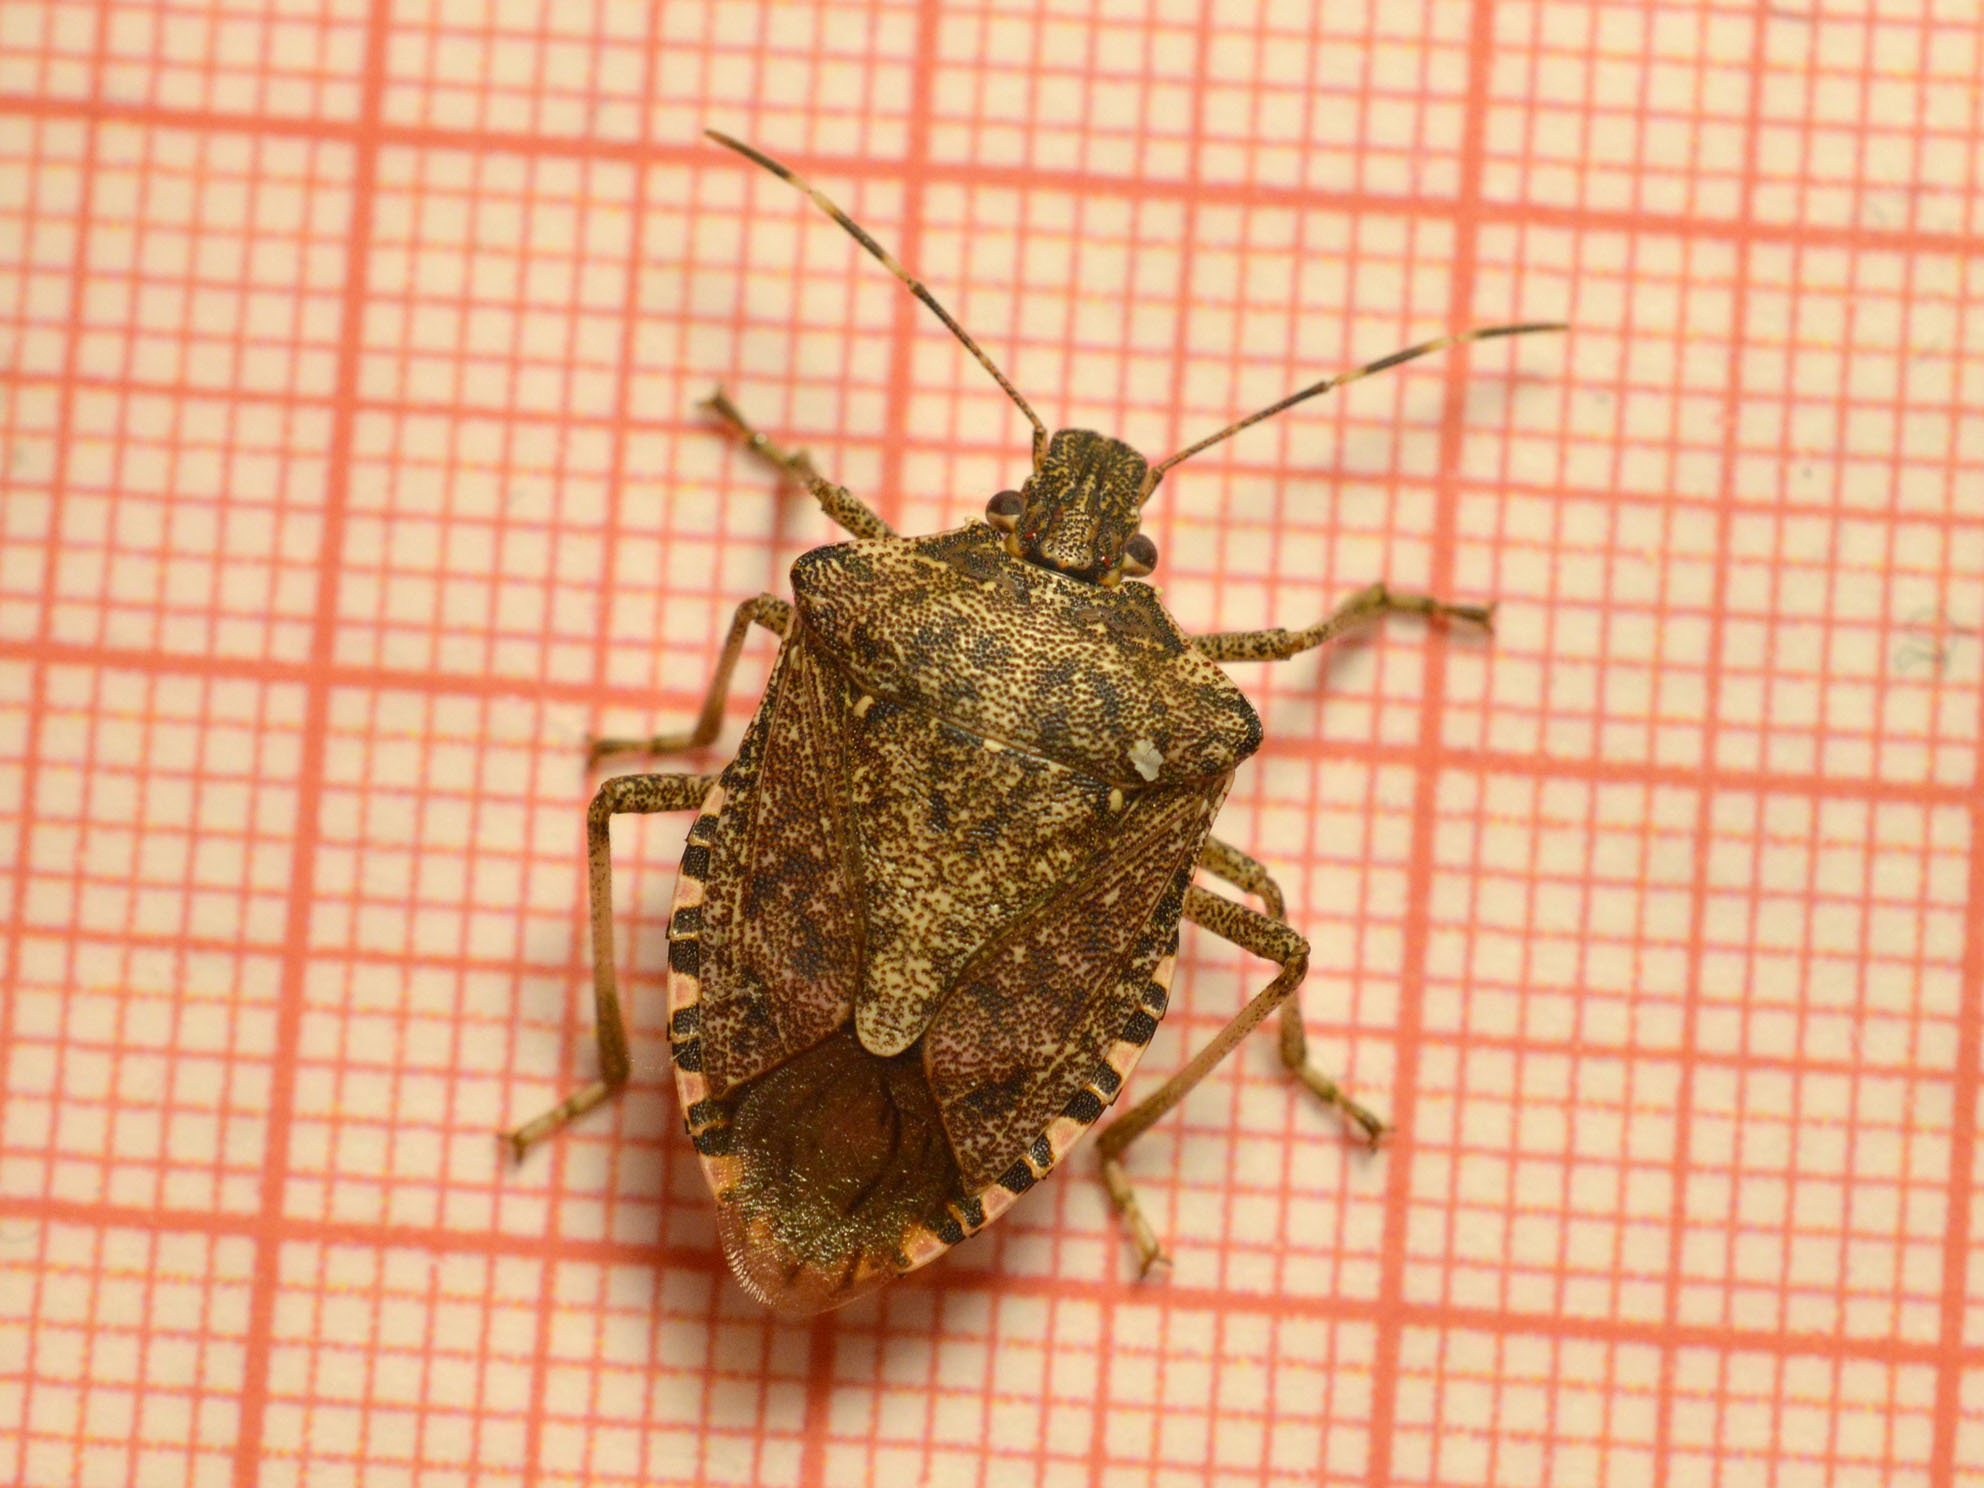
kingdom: Animalia
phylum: Arthropoda
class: Insecta
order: Hemiptera
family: Pentatomidae
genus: Halyomorpha
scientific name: Halyomorpha halys
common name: Brown marmorated stink bug
